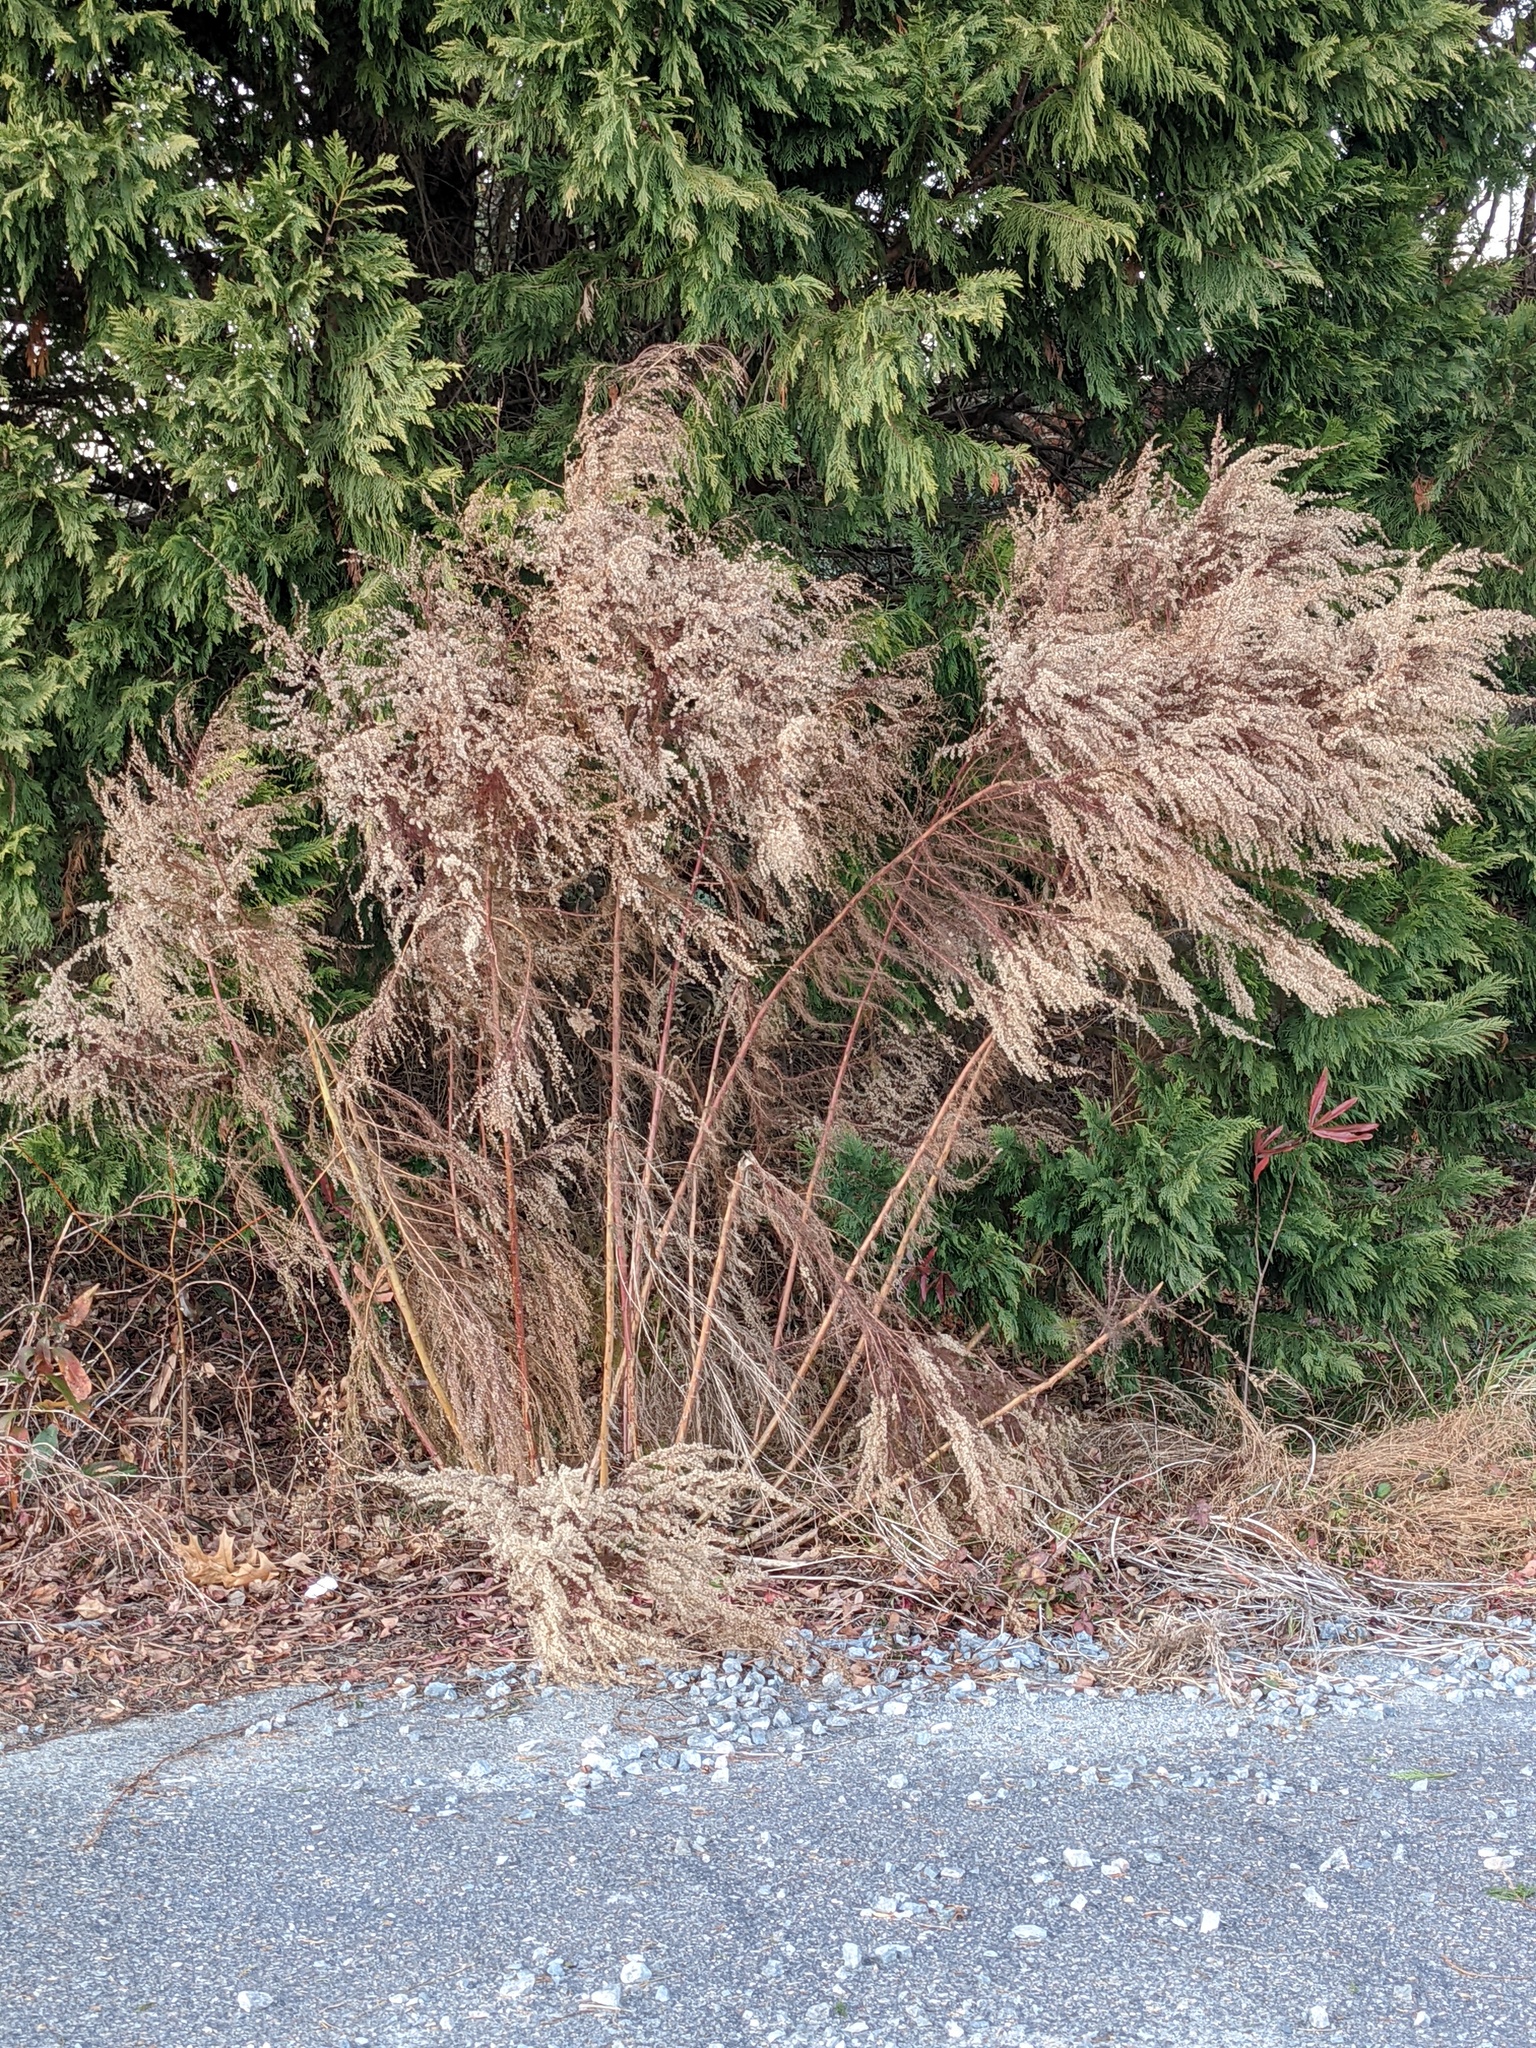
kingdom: Plantae
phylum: Tracheophyta
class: Magnoliopsida
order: Asterales
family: Asteraceae
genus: Eupatorium
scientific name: Eupatorium capillifolium
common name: Dog-fennel
